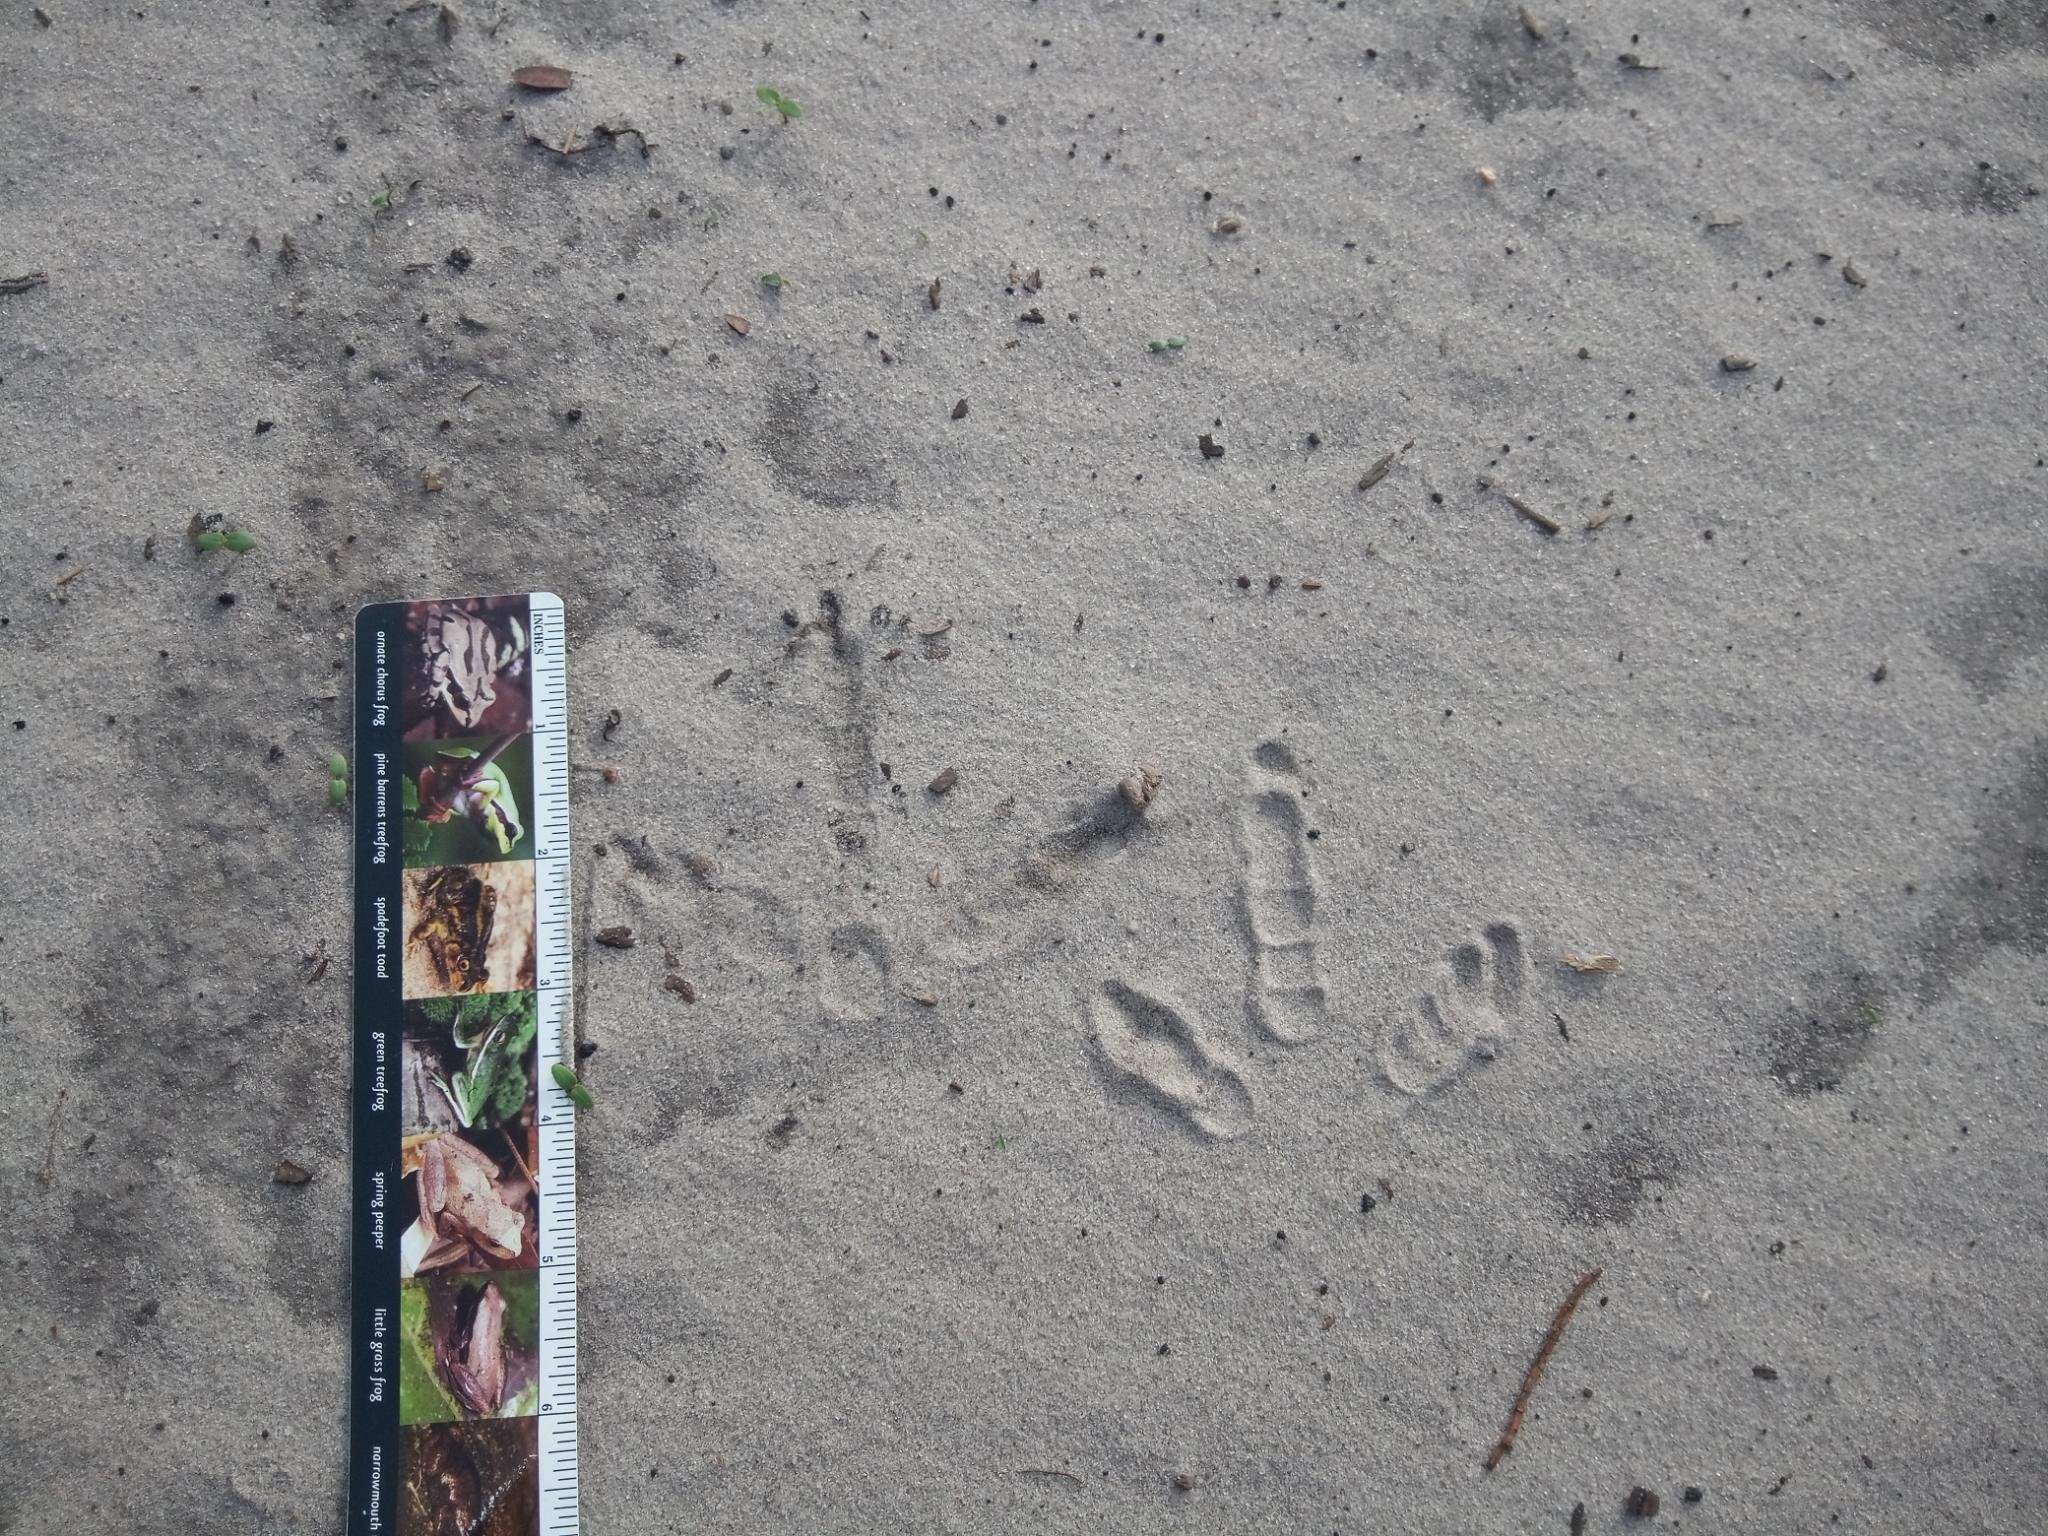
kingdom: Animalia
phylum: Chordata
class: Aves
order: Galliformes
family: Phasianidae
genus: Meleagris
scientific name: Meleagris gallopavo
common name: Wild turkey
